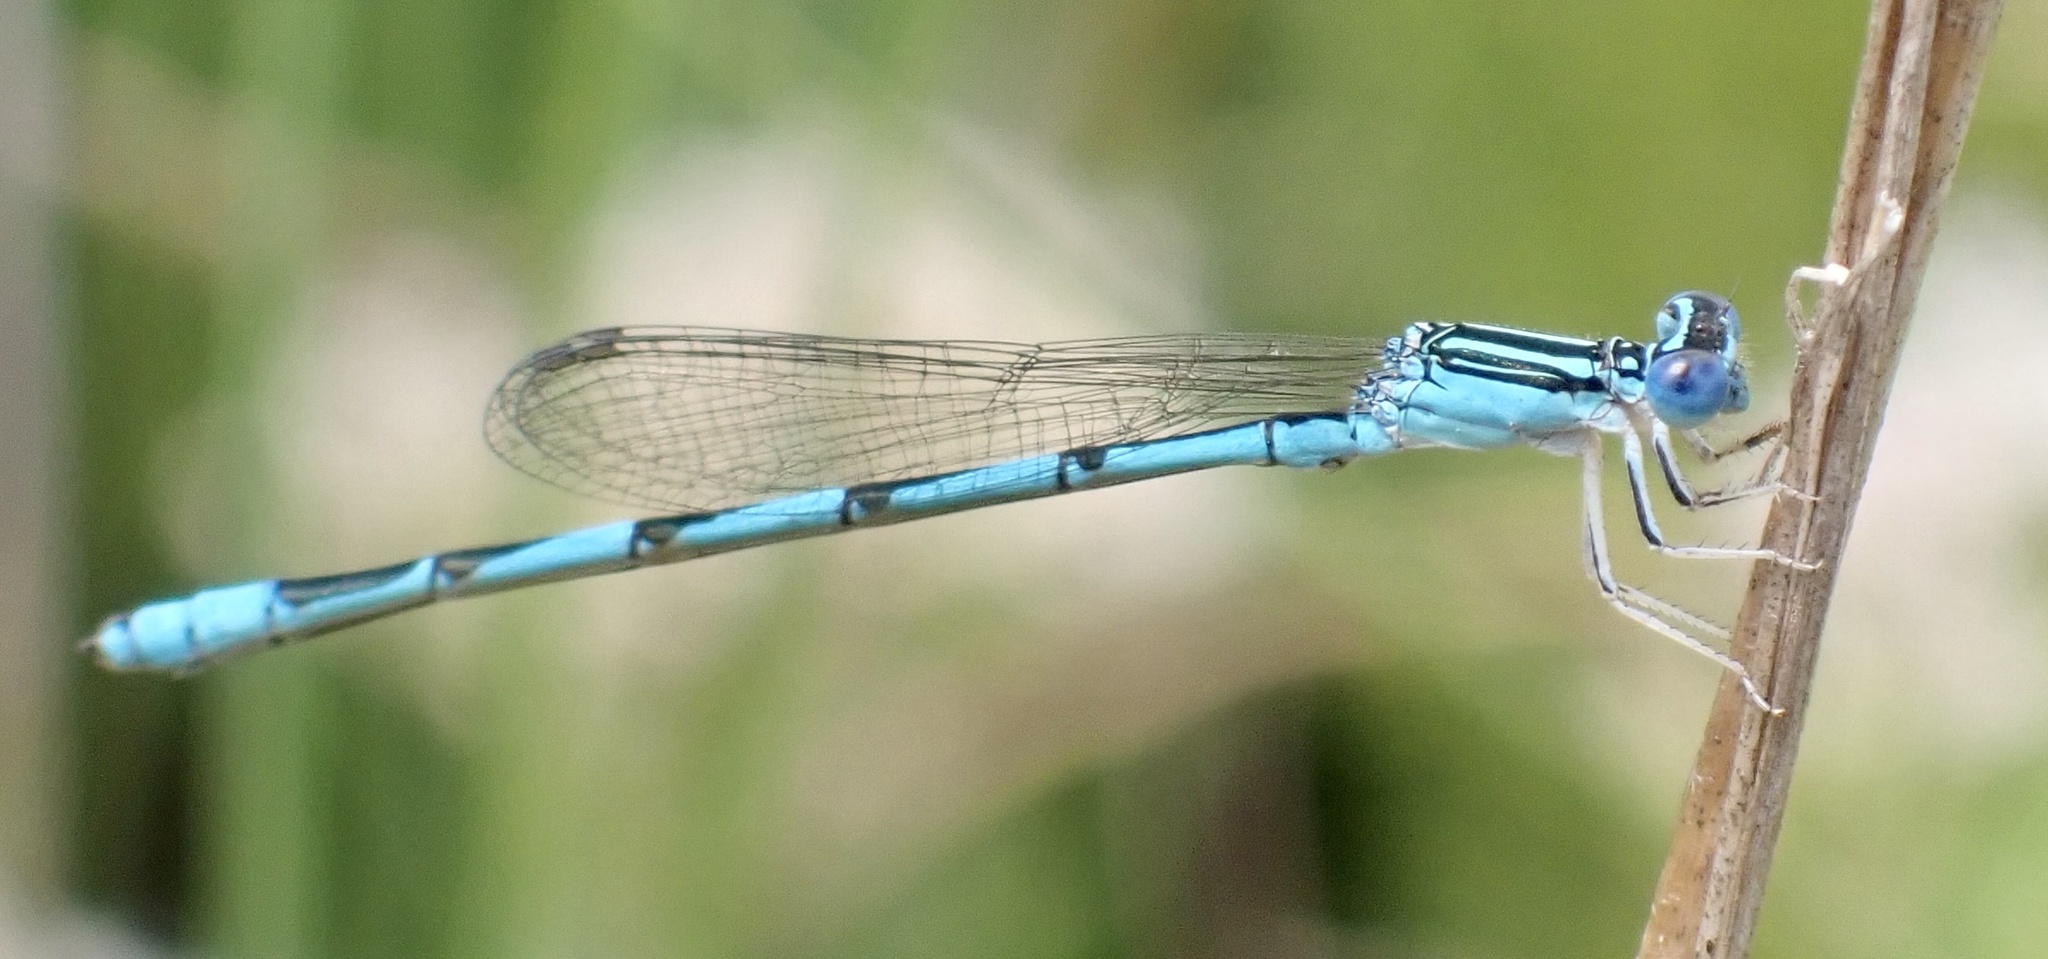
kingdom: Animalia
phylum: Arthropoda
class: Insecta
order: Odonata
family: Coenagrionidae
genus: Enallagma
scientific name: Enallagma basidens
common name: Double-striped bluet
